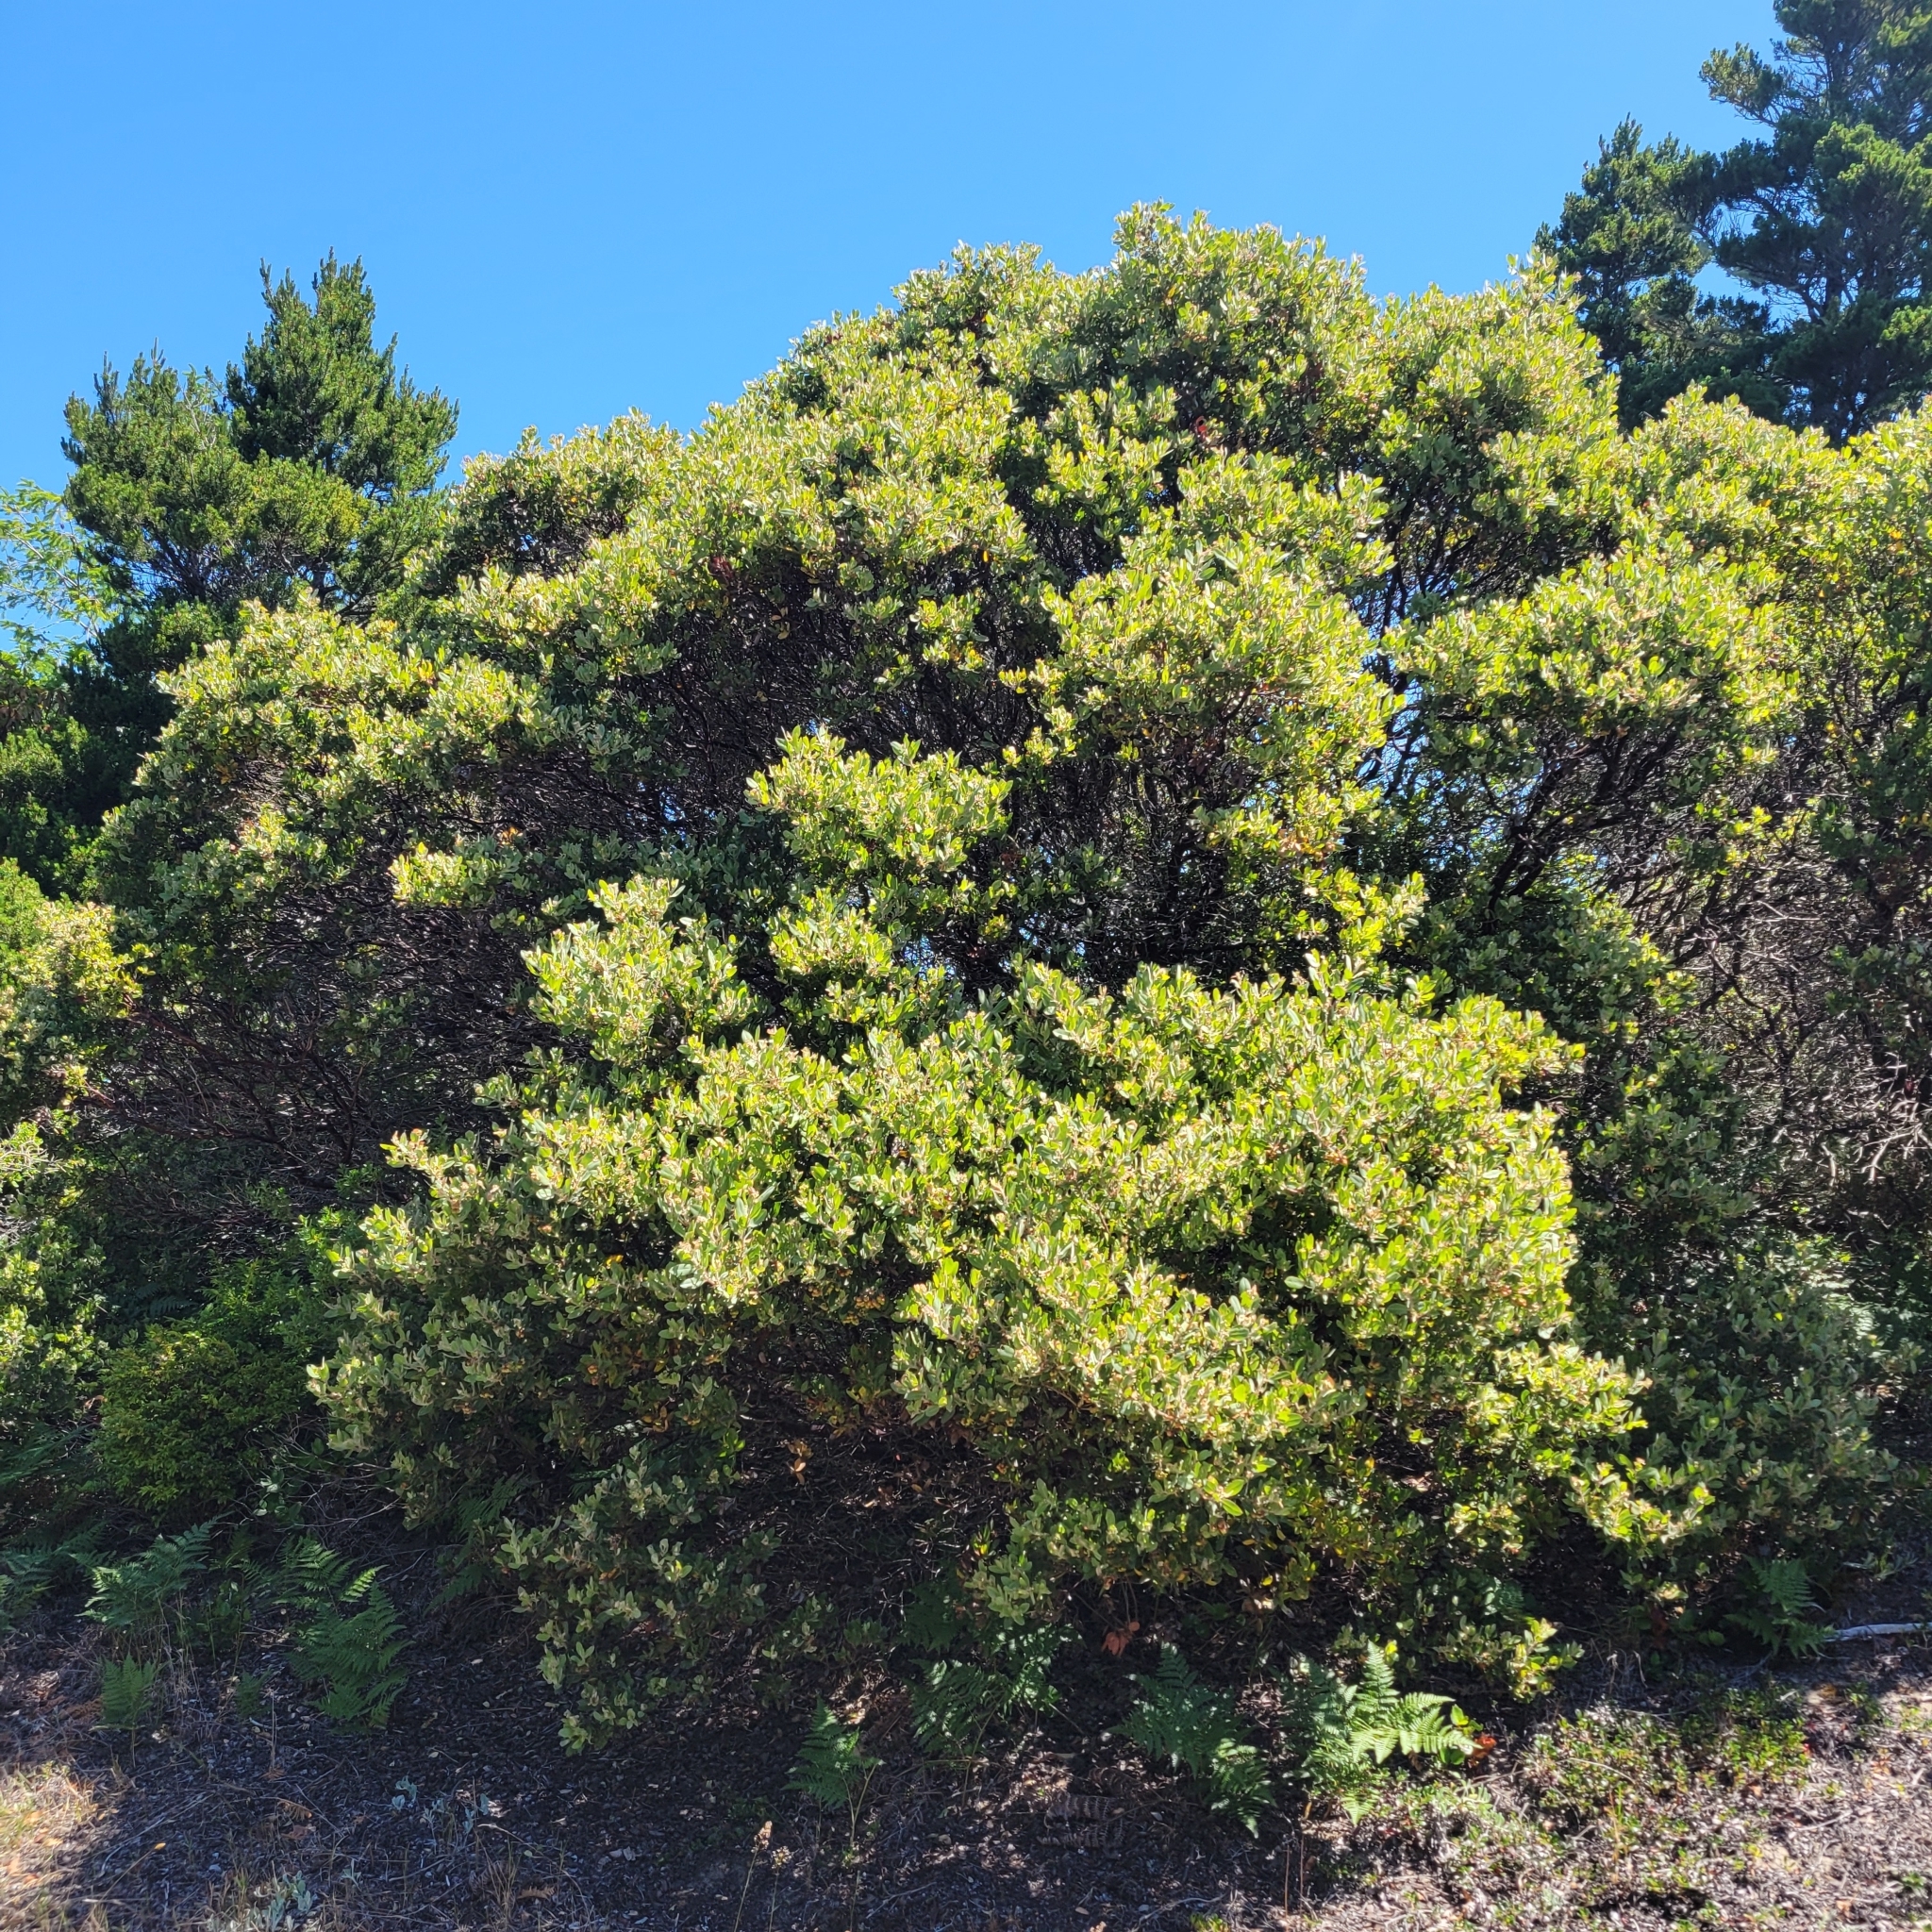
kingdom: Plantae
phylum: Tracheophyta
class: Magnoliopsida
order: Ericales
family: Ericaceae
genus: Arctostaphylos
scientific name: Arctostaphylos columbiana
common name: Bristly bearberry
